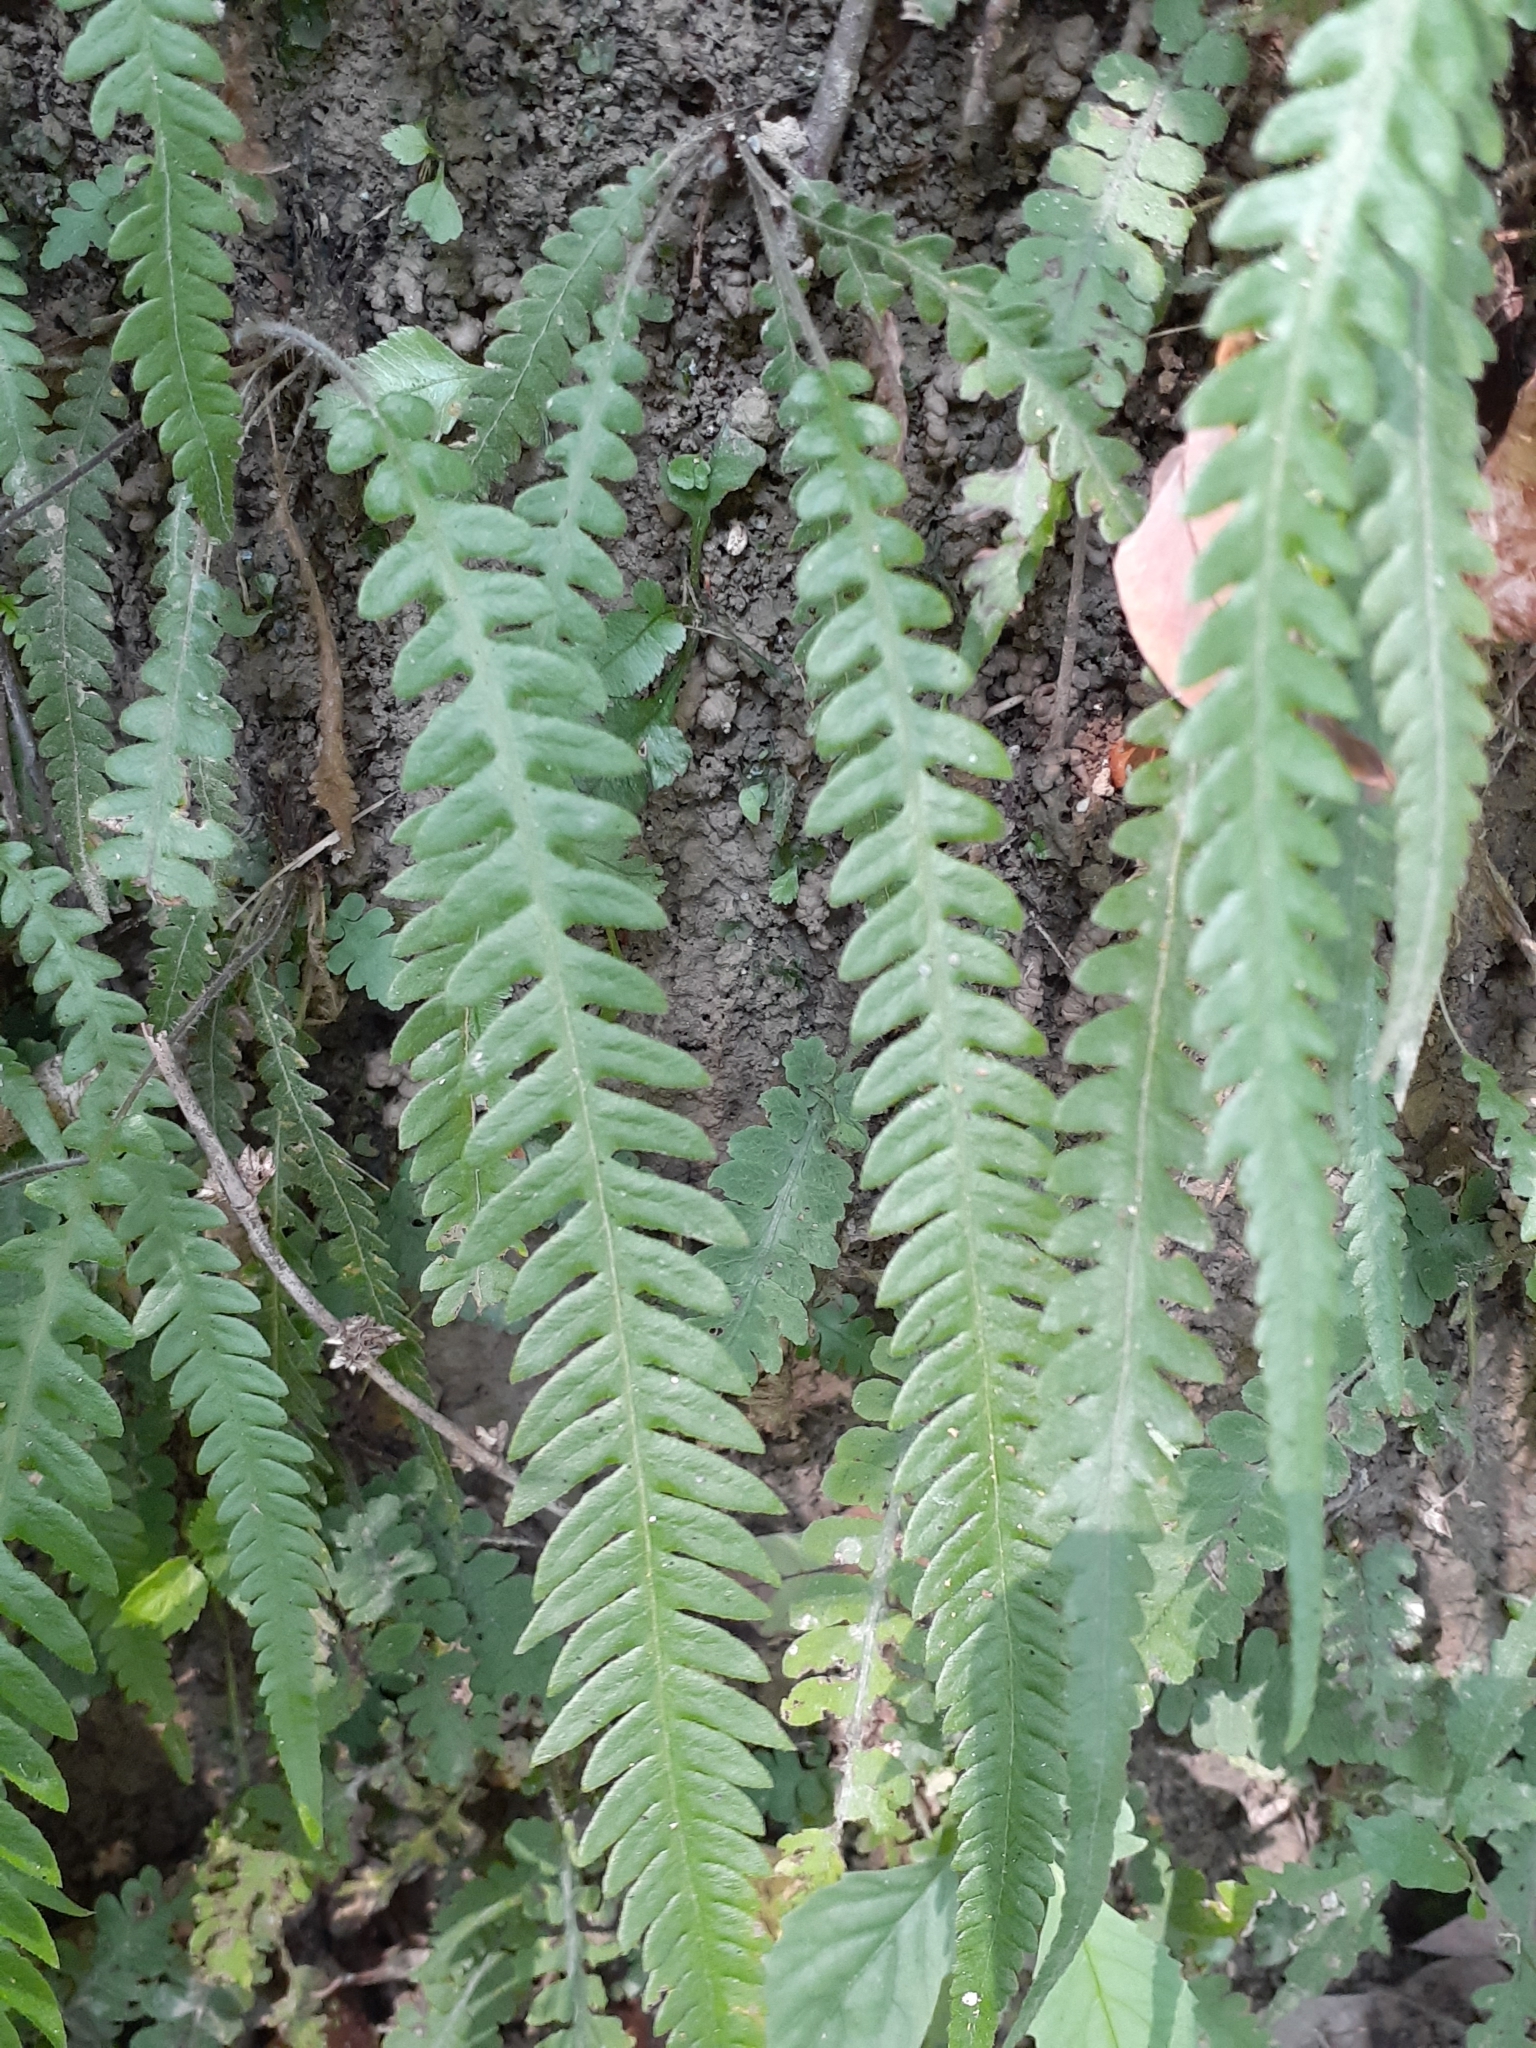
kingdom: Plantae
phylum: Tracheophyta
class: Polypodiopsida
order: Polypodiales
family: Thelypteridaceae
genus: Phegopteris
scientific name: Phegopteris decursive-pinnata
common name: Japanese beech fern
